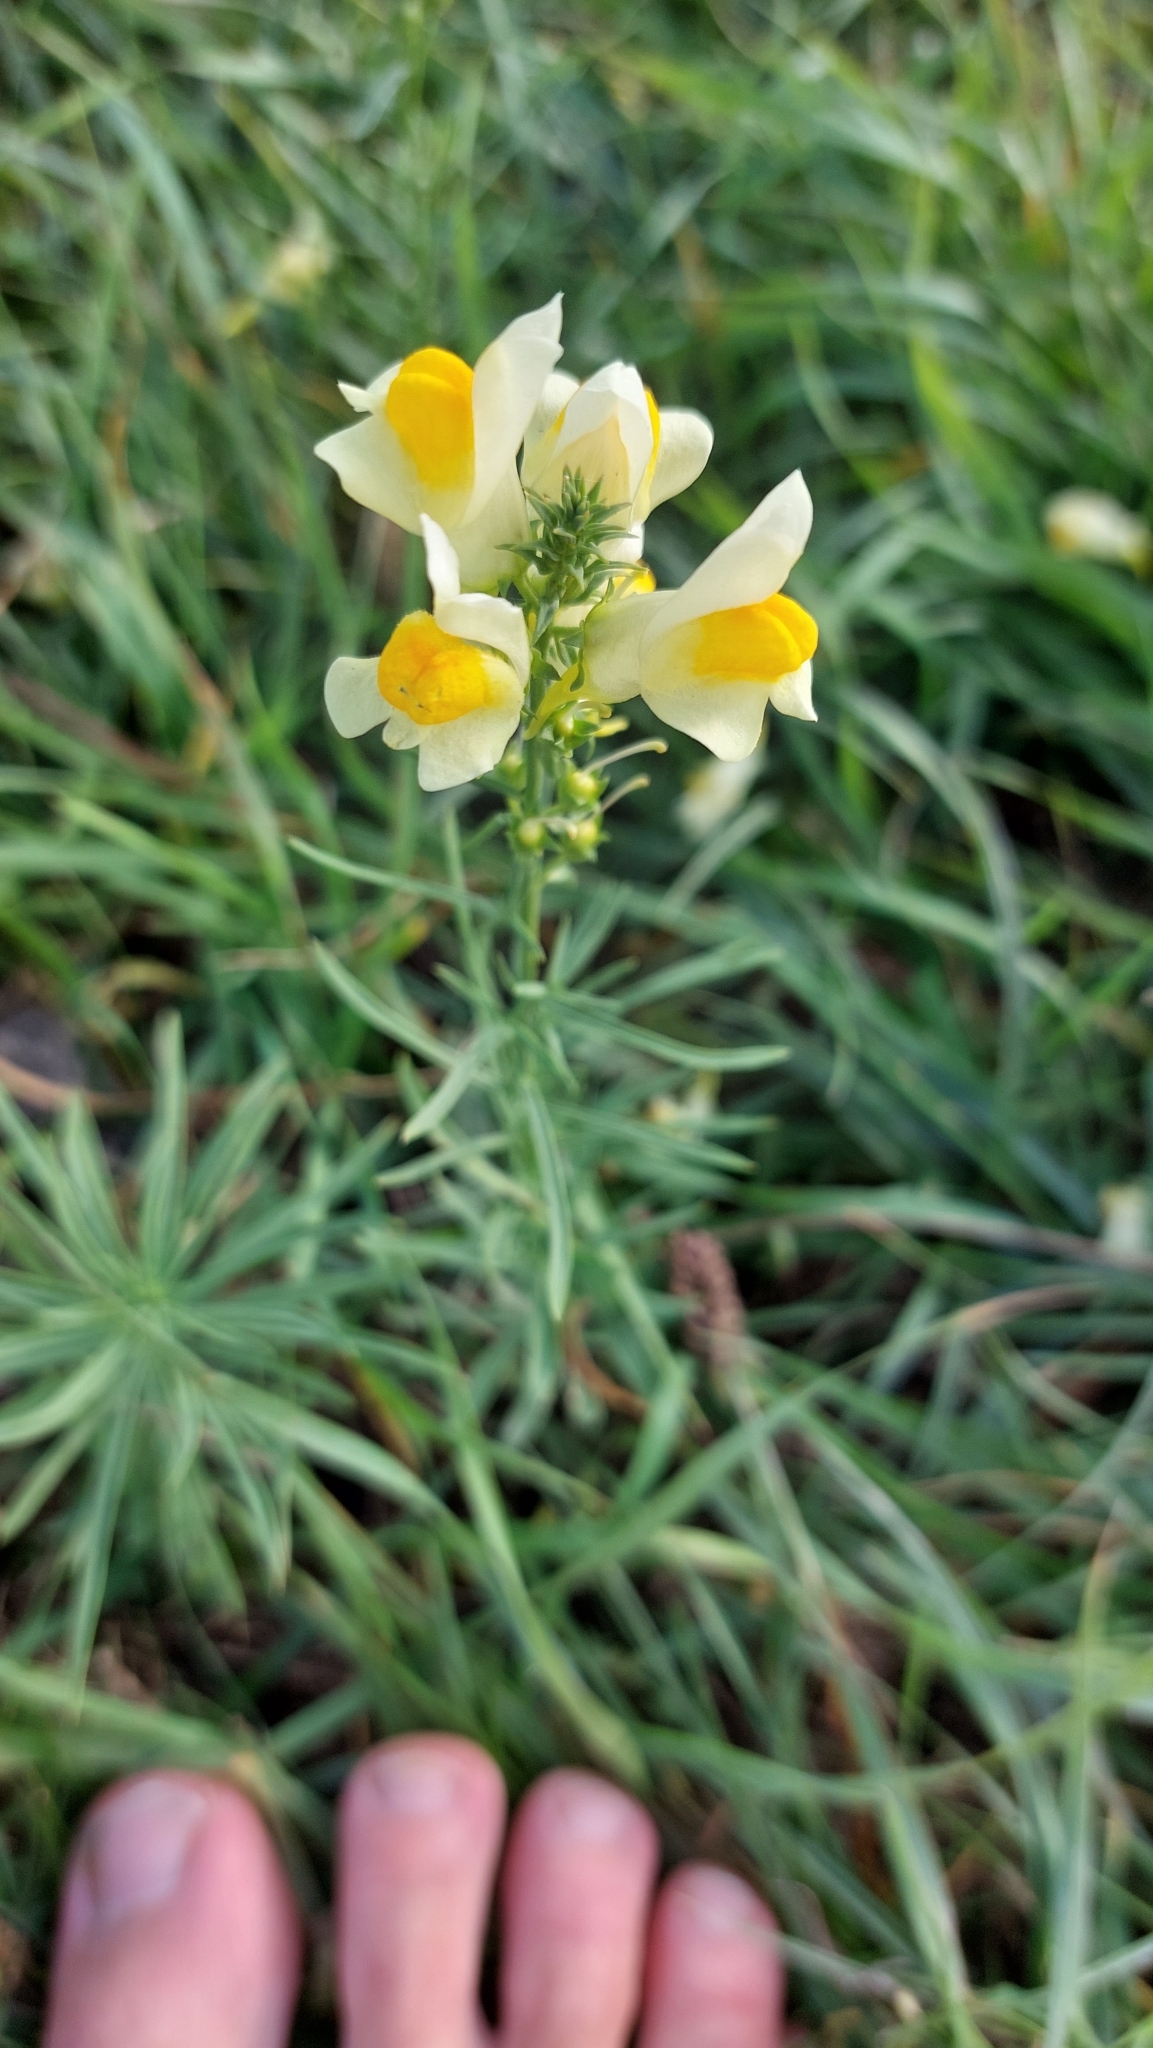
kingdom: Plantae
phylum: Tracheophyta
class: Magnoliopsida
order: Lamiales
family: Plantaginaceae
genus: Linaria
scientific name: Linaria vulgaris
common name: Butter and eggs
